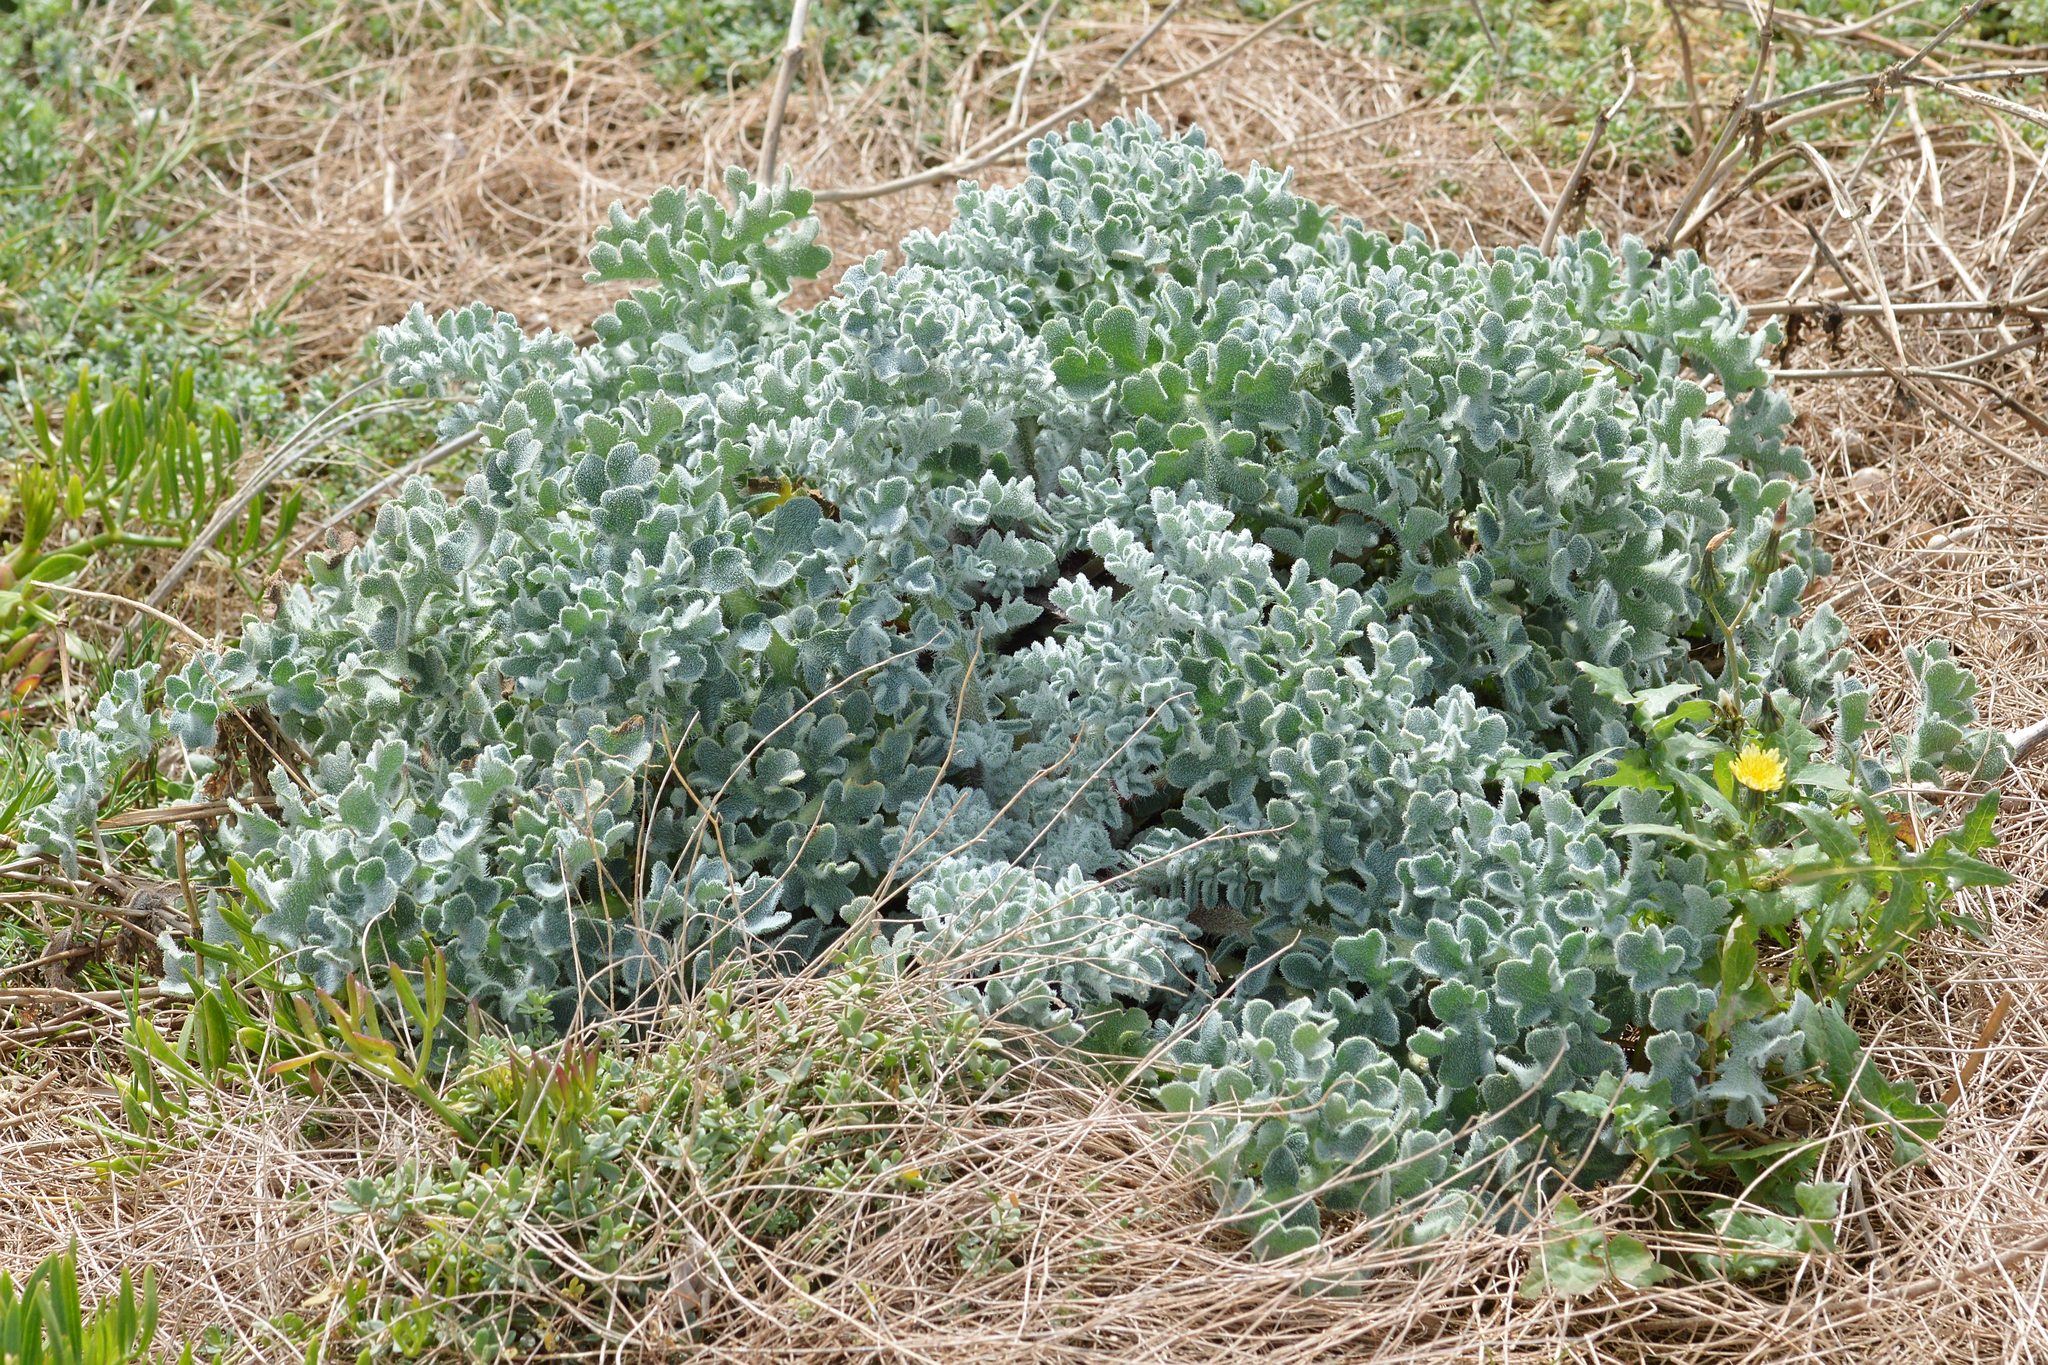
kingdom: Plantae
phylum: Tracheophyta
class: Magnoliopsida
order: Ranunculales
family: Papaveraceae
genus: Glaucium
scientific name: Glaucium flavum
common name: Yellow horned-poppy
